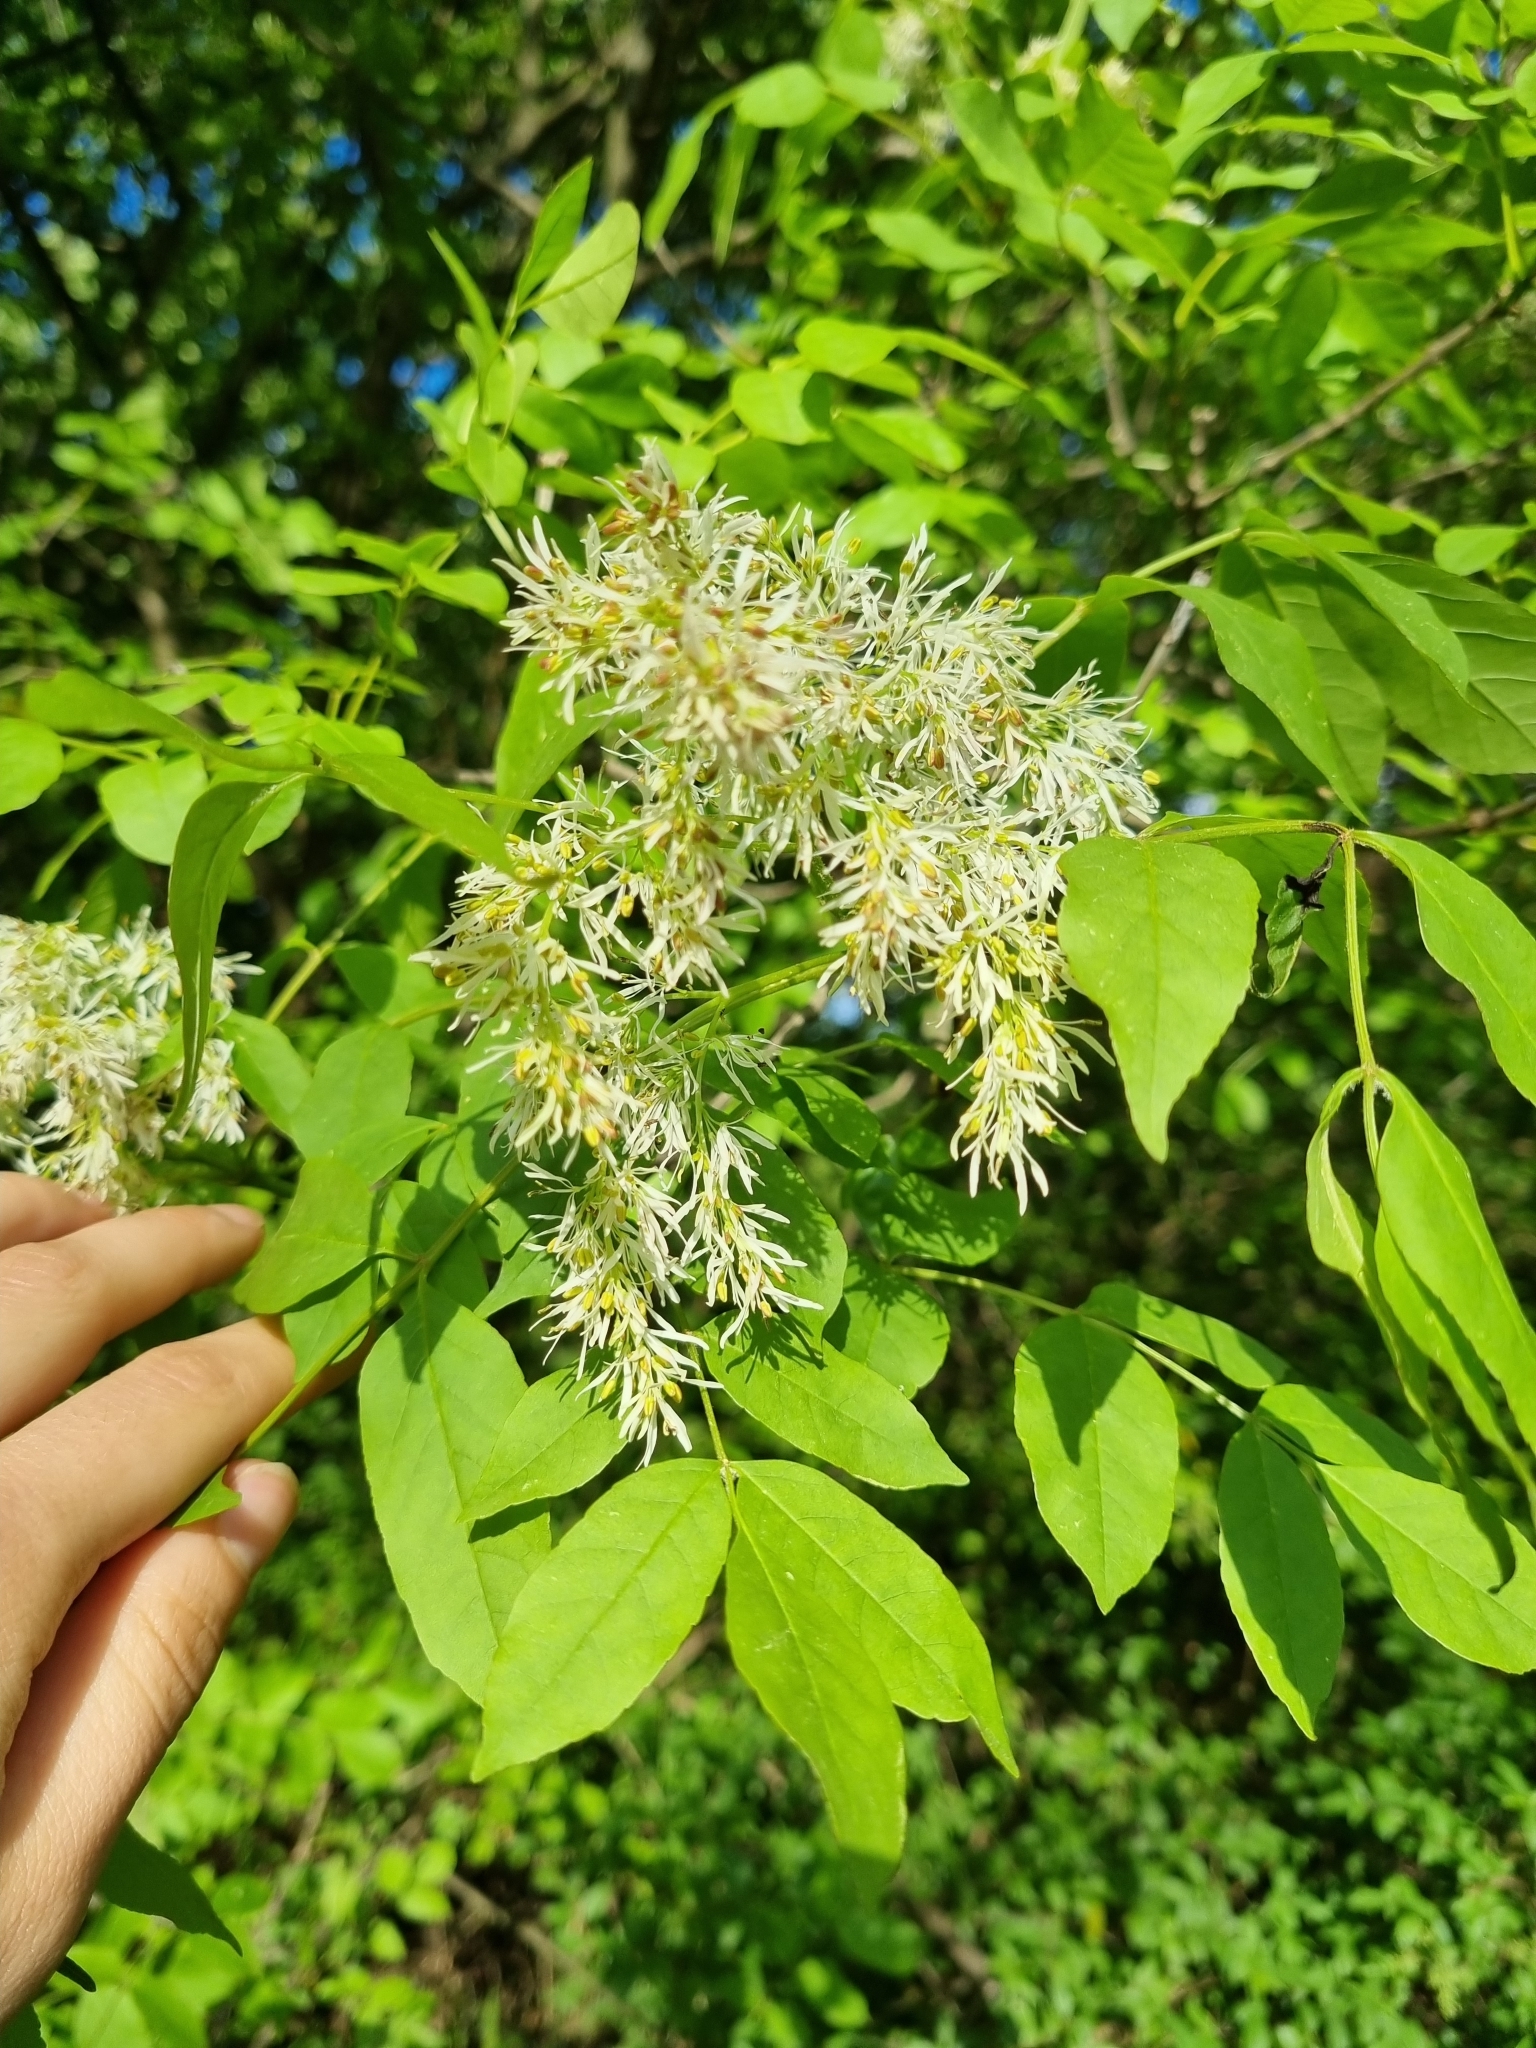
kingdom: Plantae
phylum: Tracheophyta
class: Magnoliopsida
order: Lamiales
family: Oleaceae
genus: Fraxinus
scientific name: Fraxinus ornus
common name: Manna ash
